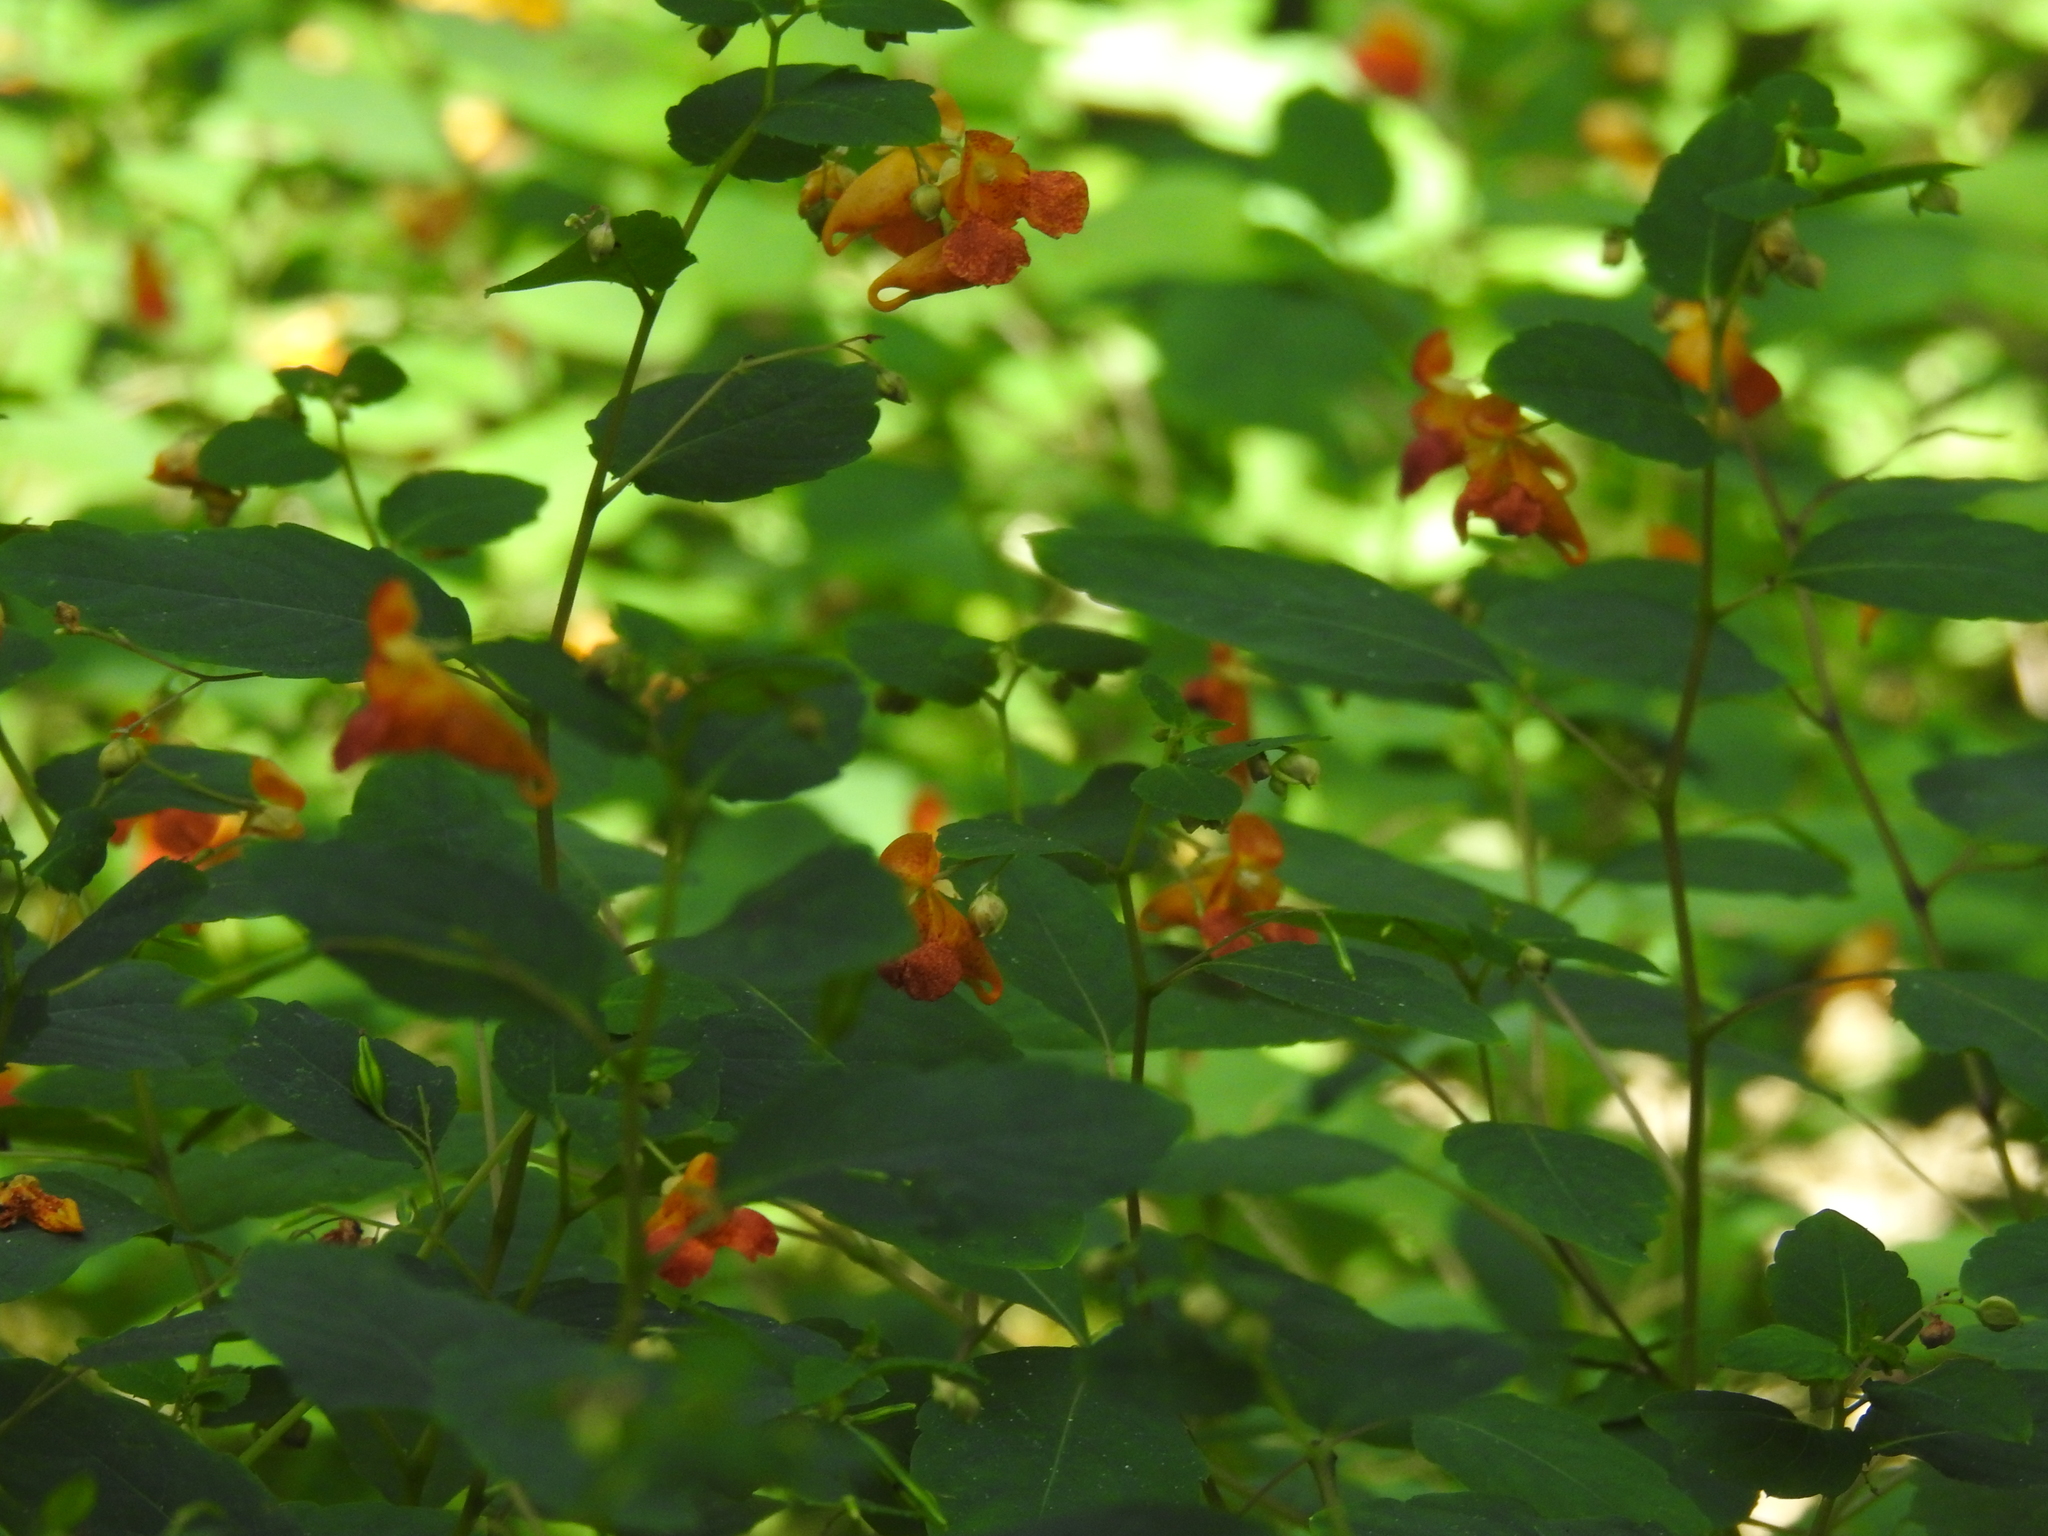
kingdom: Plantae
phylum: Tracheophyta
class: Magnoliopsida
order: Ericales
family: Balsaminaceae
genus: Impatiens
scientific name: Impatiens capensis
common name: Orange balsam
